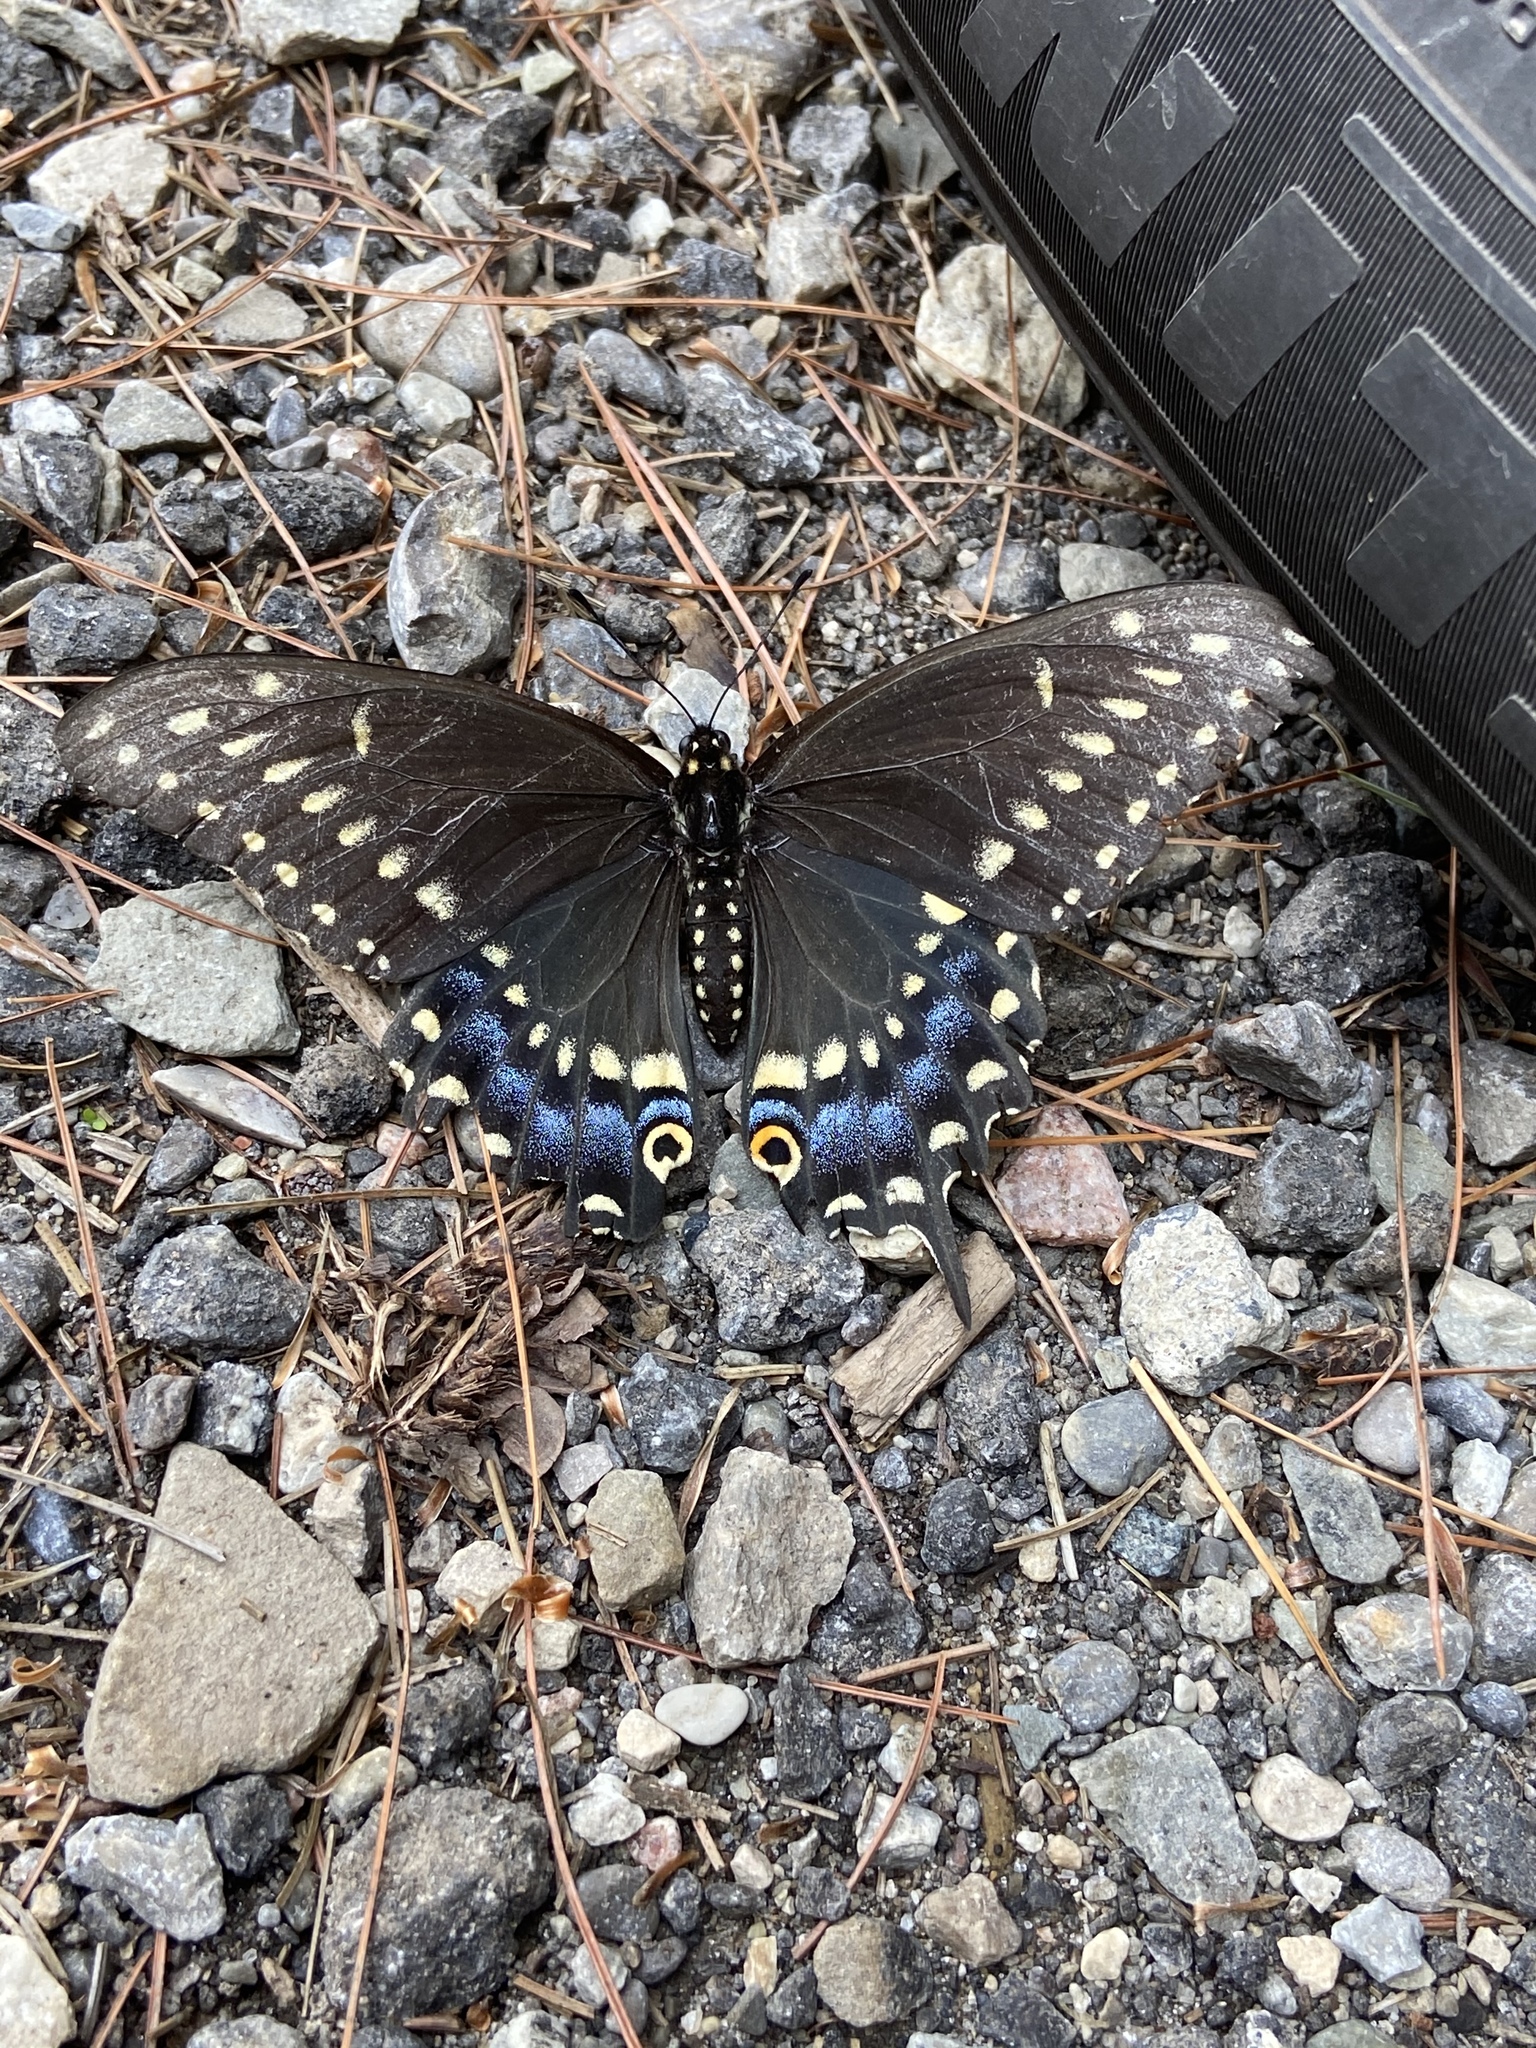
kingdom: Animalia
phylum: Arthropoda
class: Insecta
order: Lepidoptera
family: Papilionidae
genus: Papilio
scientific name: Papilio polyxenes
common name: Black swallowtail
